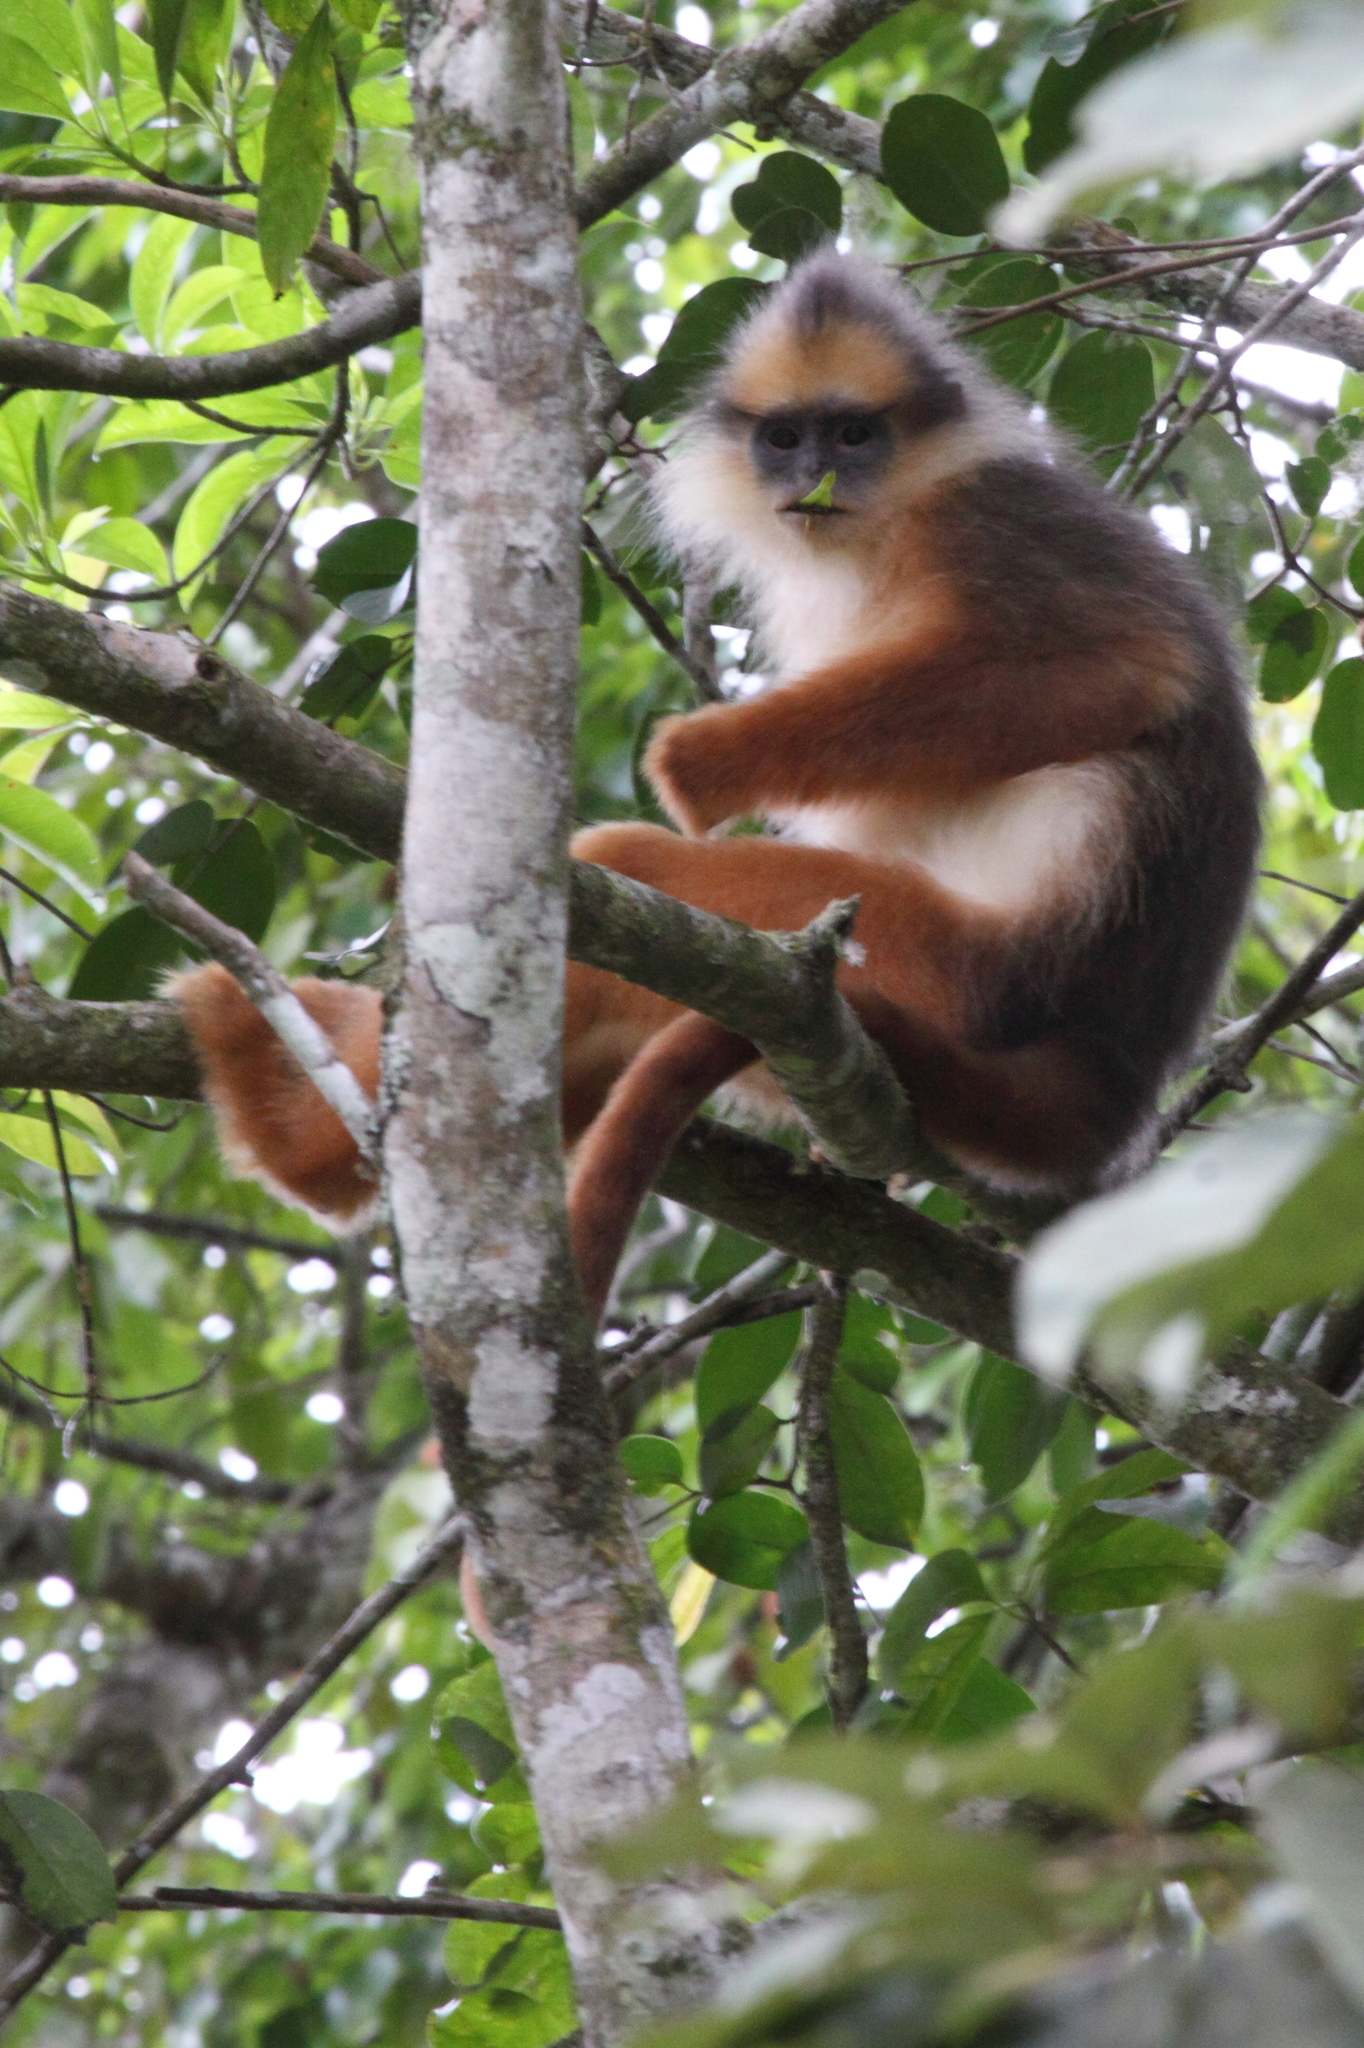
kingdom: Animalia
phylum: Chordata
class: Mammalia
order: Primates
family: Cercopithecidae
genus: Presbytis
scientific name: Presbytis melalophos
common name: Sumatran surili
